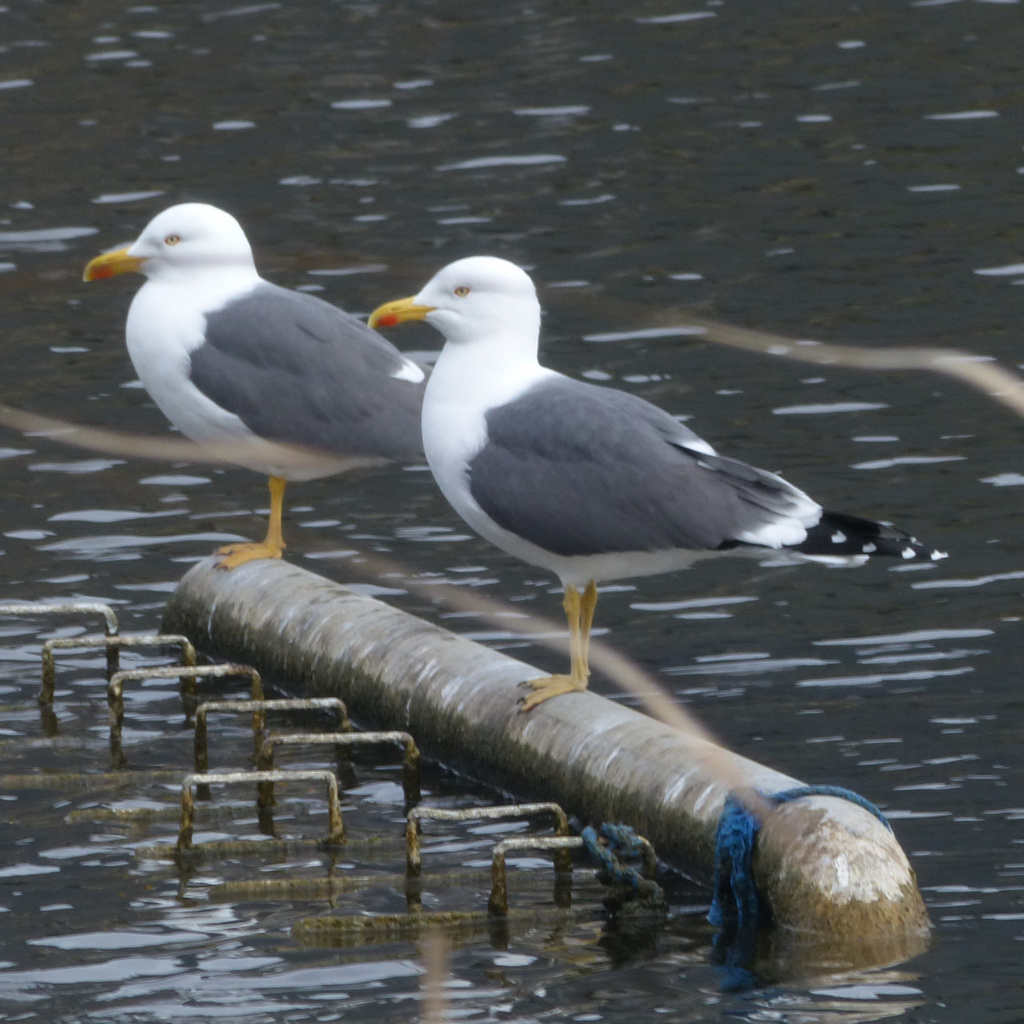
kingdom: Animalia
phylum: Chordata
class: Aves
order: Charadriiformes
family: Laridae
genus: Larus
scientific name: Larus fuscus
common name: Lesser black-backed gull
